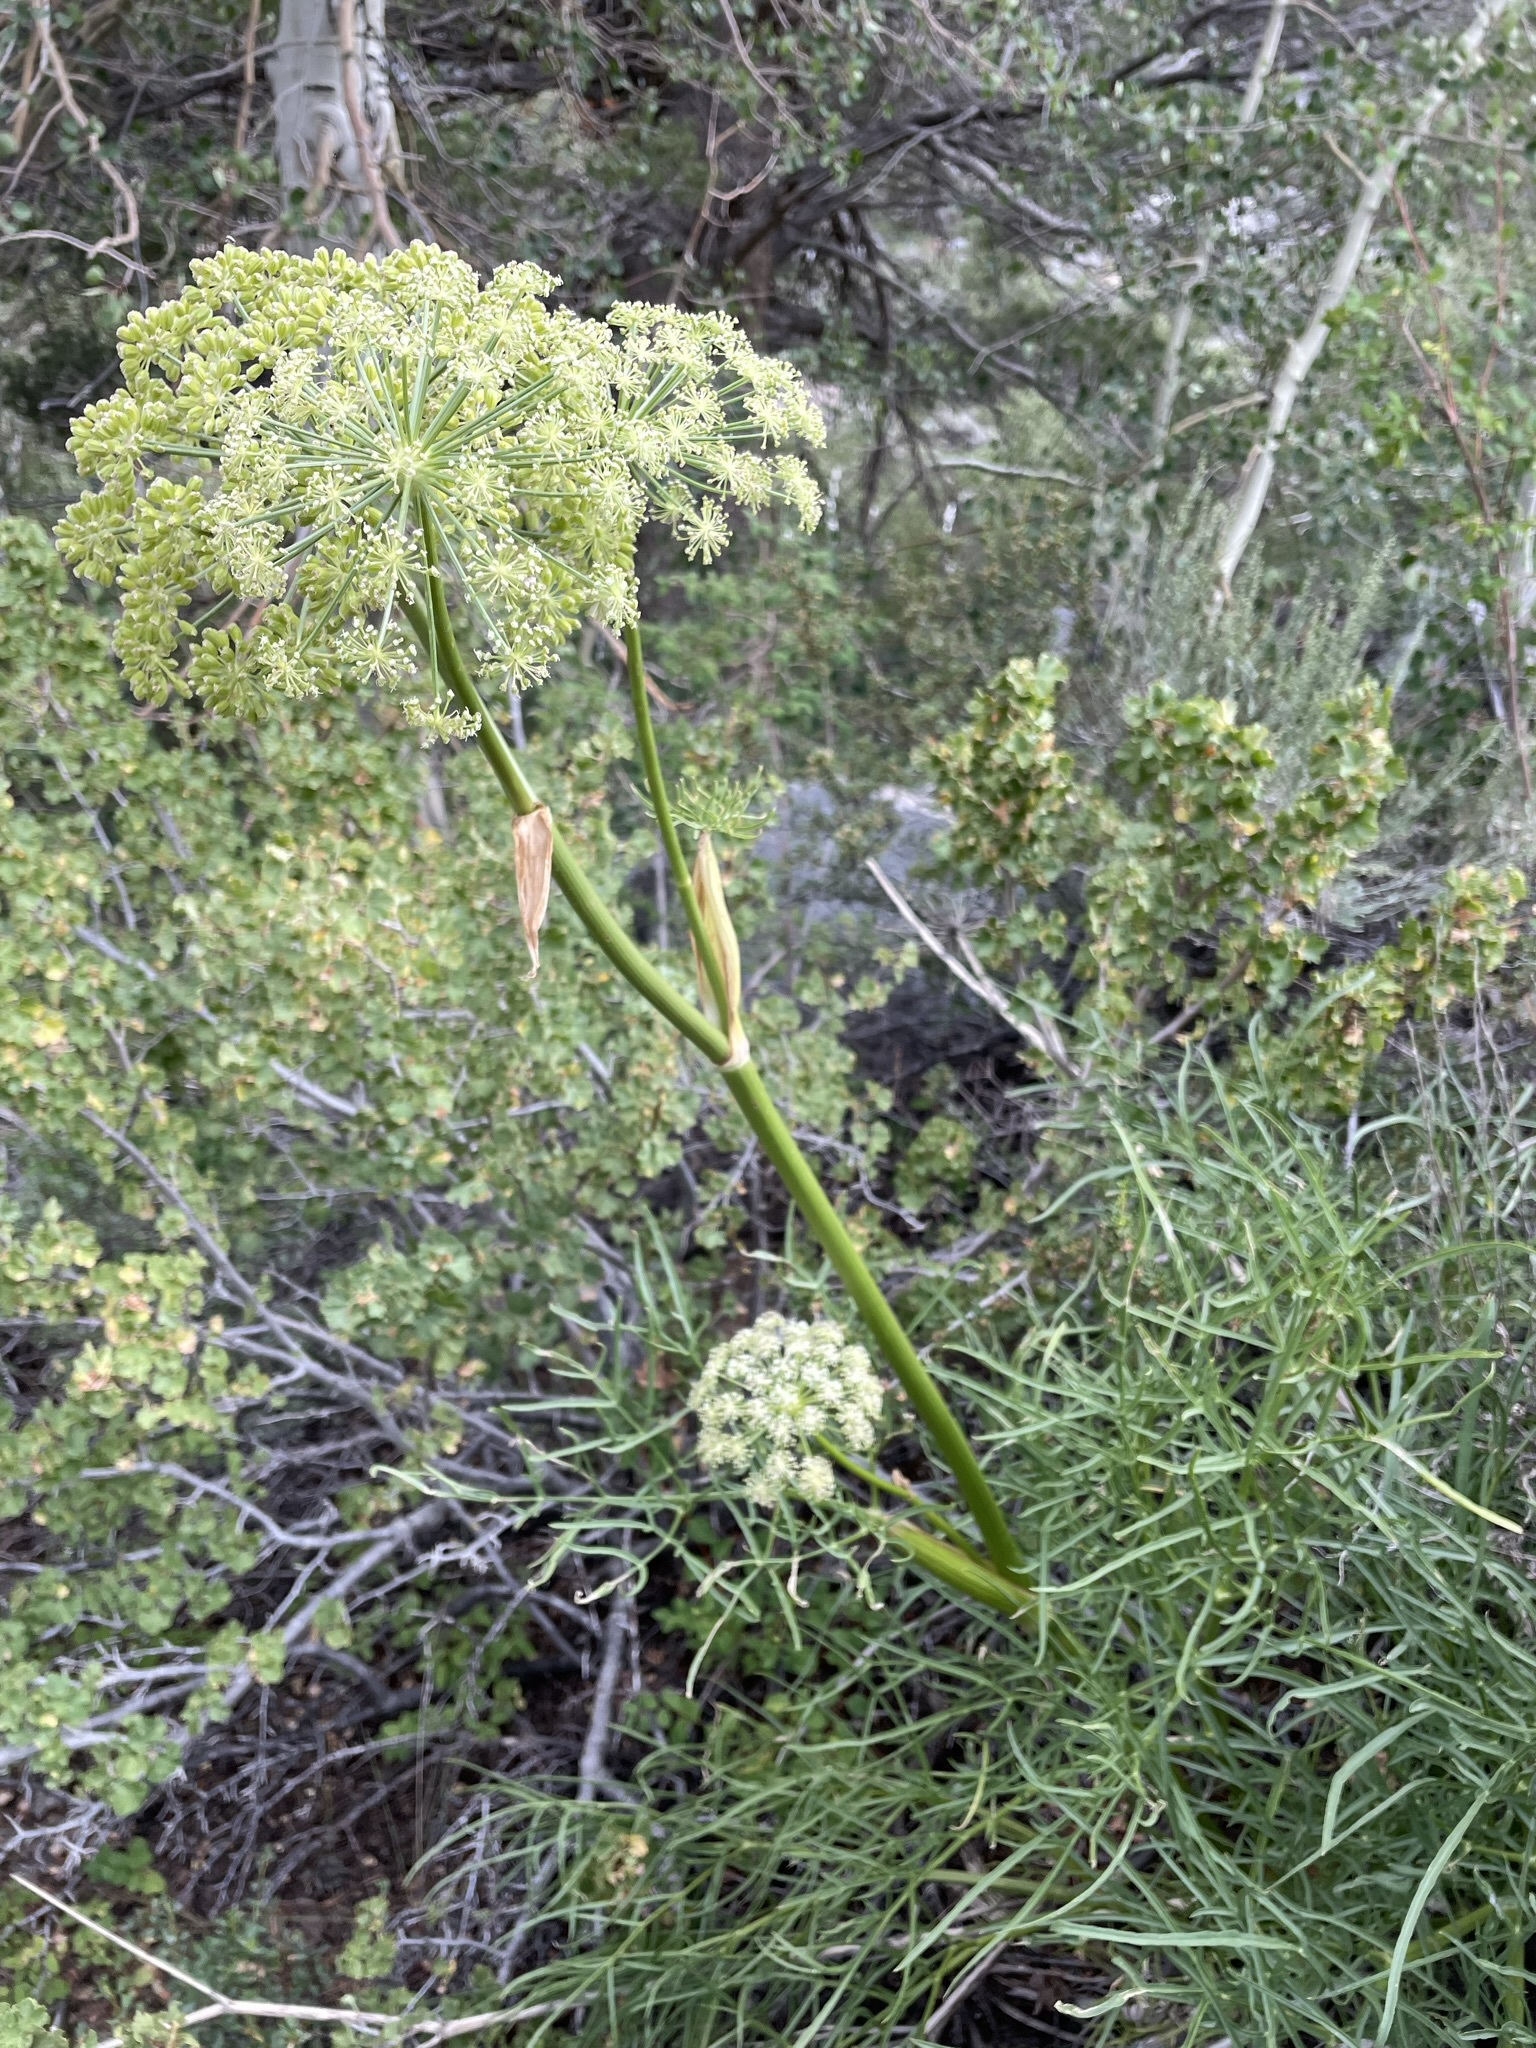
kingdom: Plantae
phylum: Tracheophyta
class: Magnoliopsida
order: Apiales
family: Apiaceae
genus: Angelica
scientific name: Angelica lineariloba
